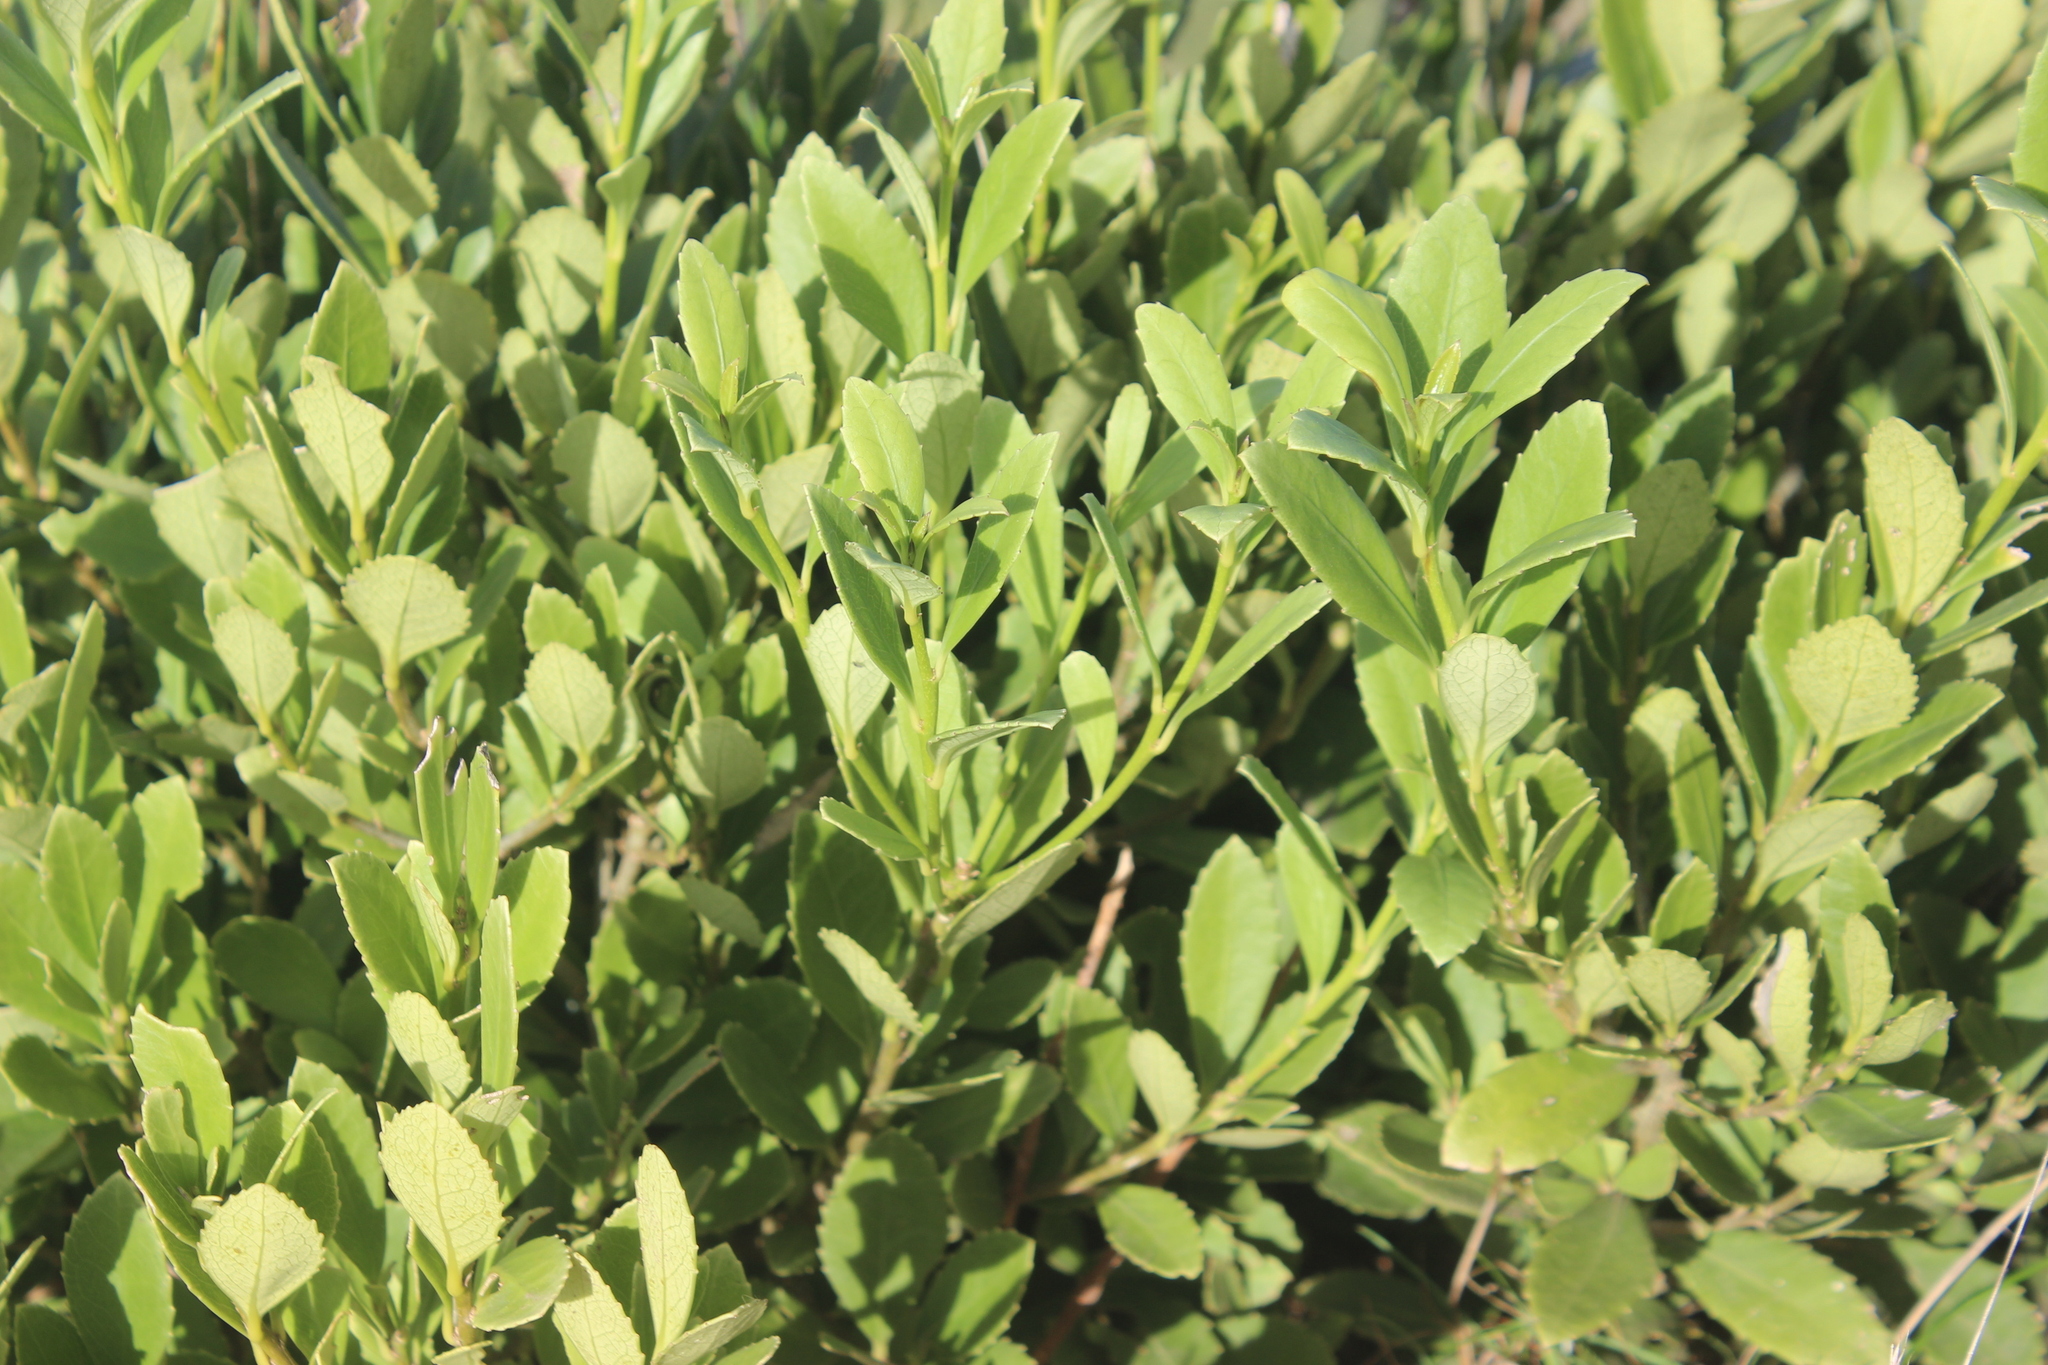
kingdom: Plantae
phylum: Tracheophyta
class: Magnoliopsida
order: Malpighiales
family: Violaceae
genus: Melicytus
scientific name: Melicytus chathamicus
